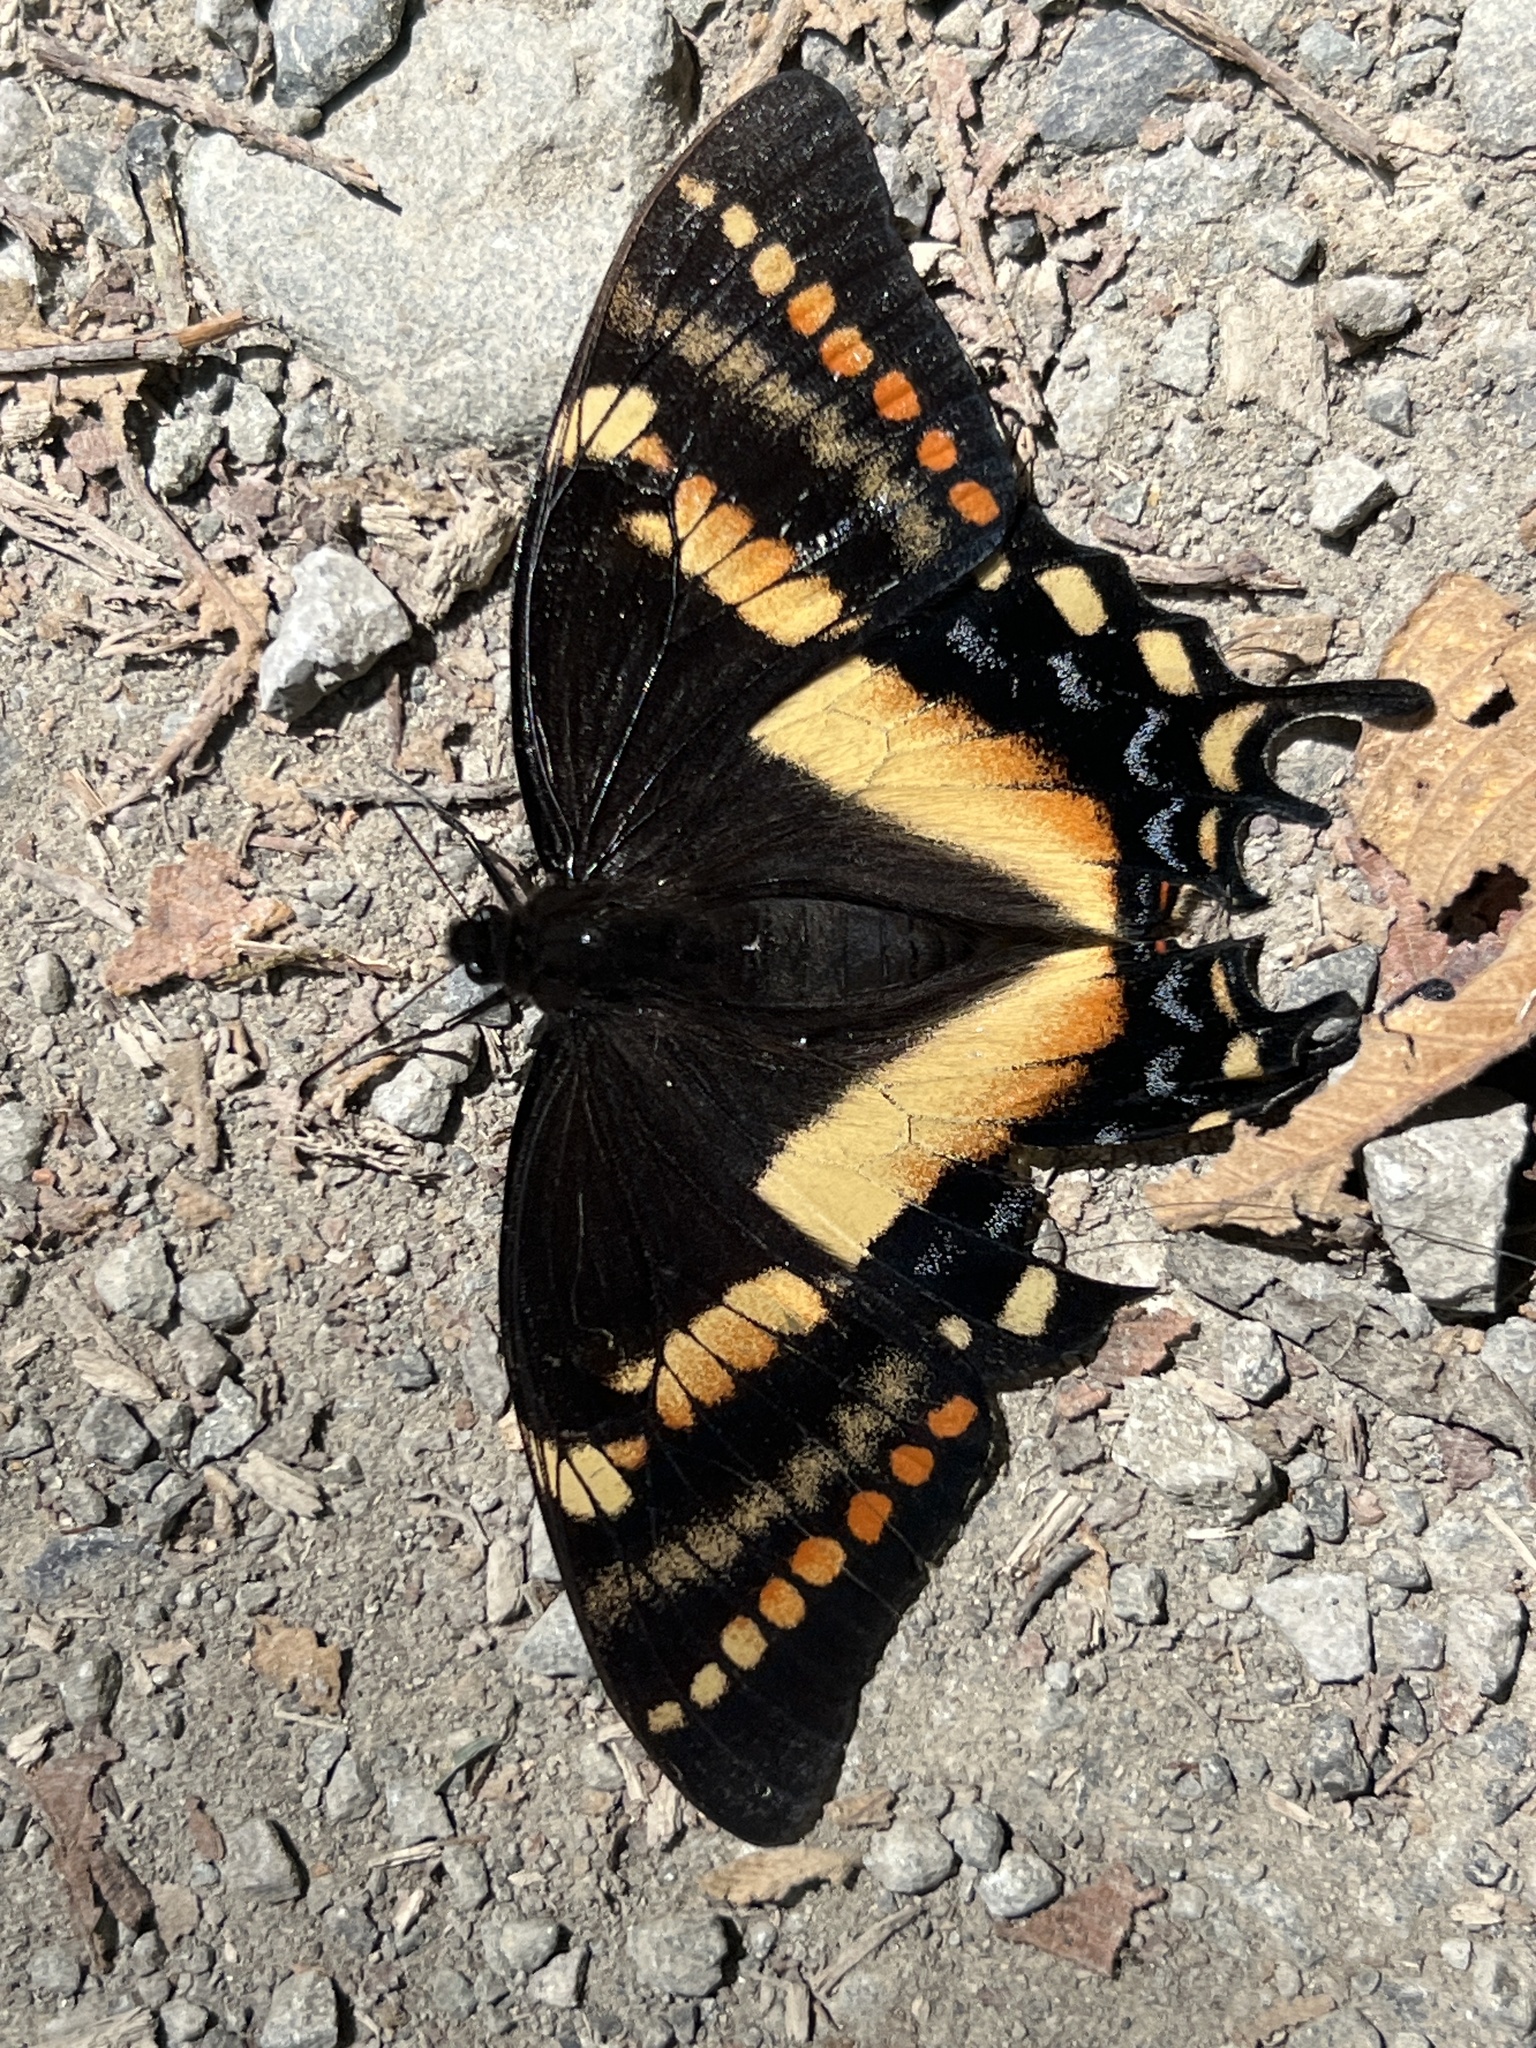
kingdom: Animalia
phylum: Arthropoda
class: Insecta
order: Lepidoptera
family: Papilionidae
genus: Papilio
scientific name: Papilio cacicus
